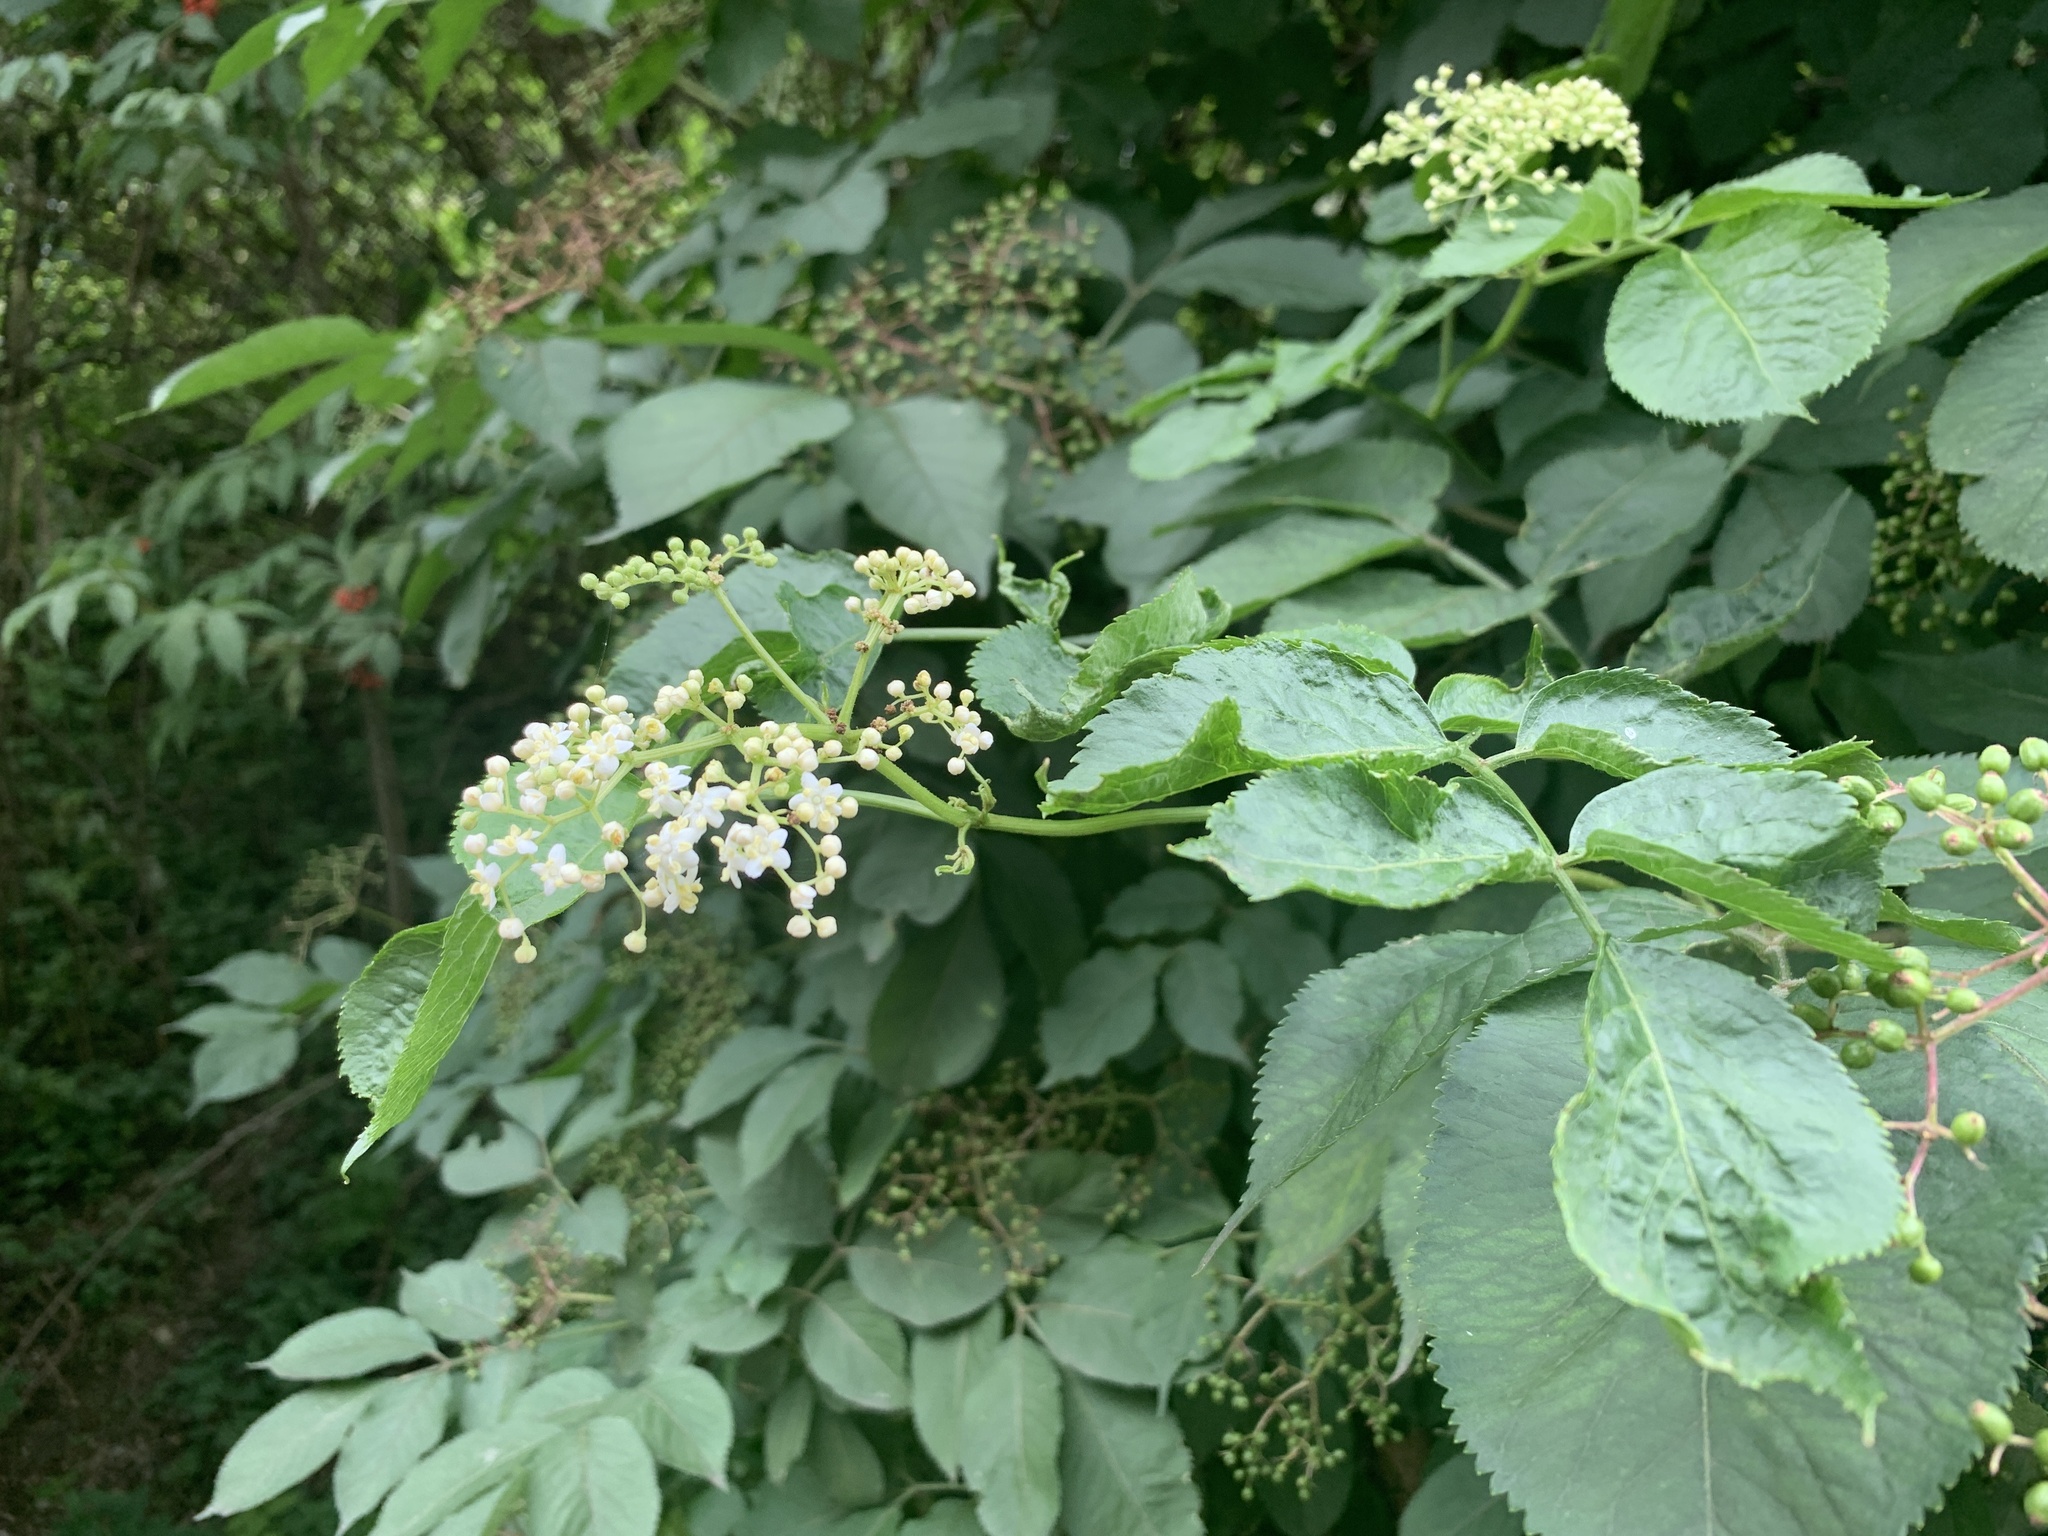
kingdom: Plantae
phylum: Tracheophyta
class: Magnoliopsida
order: Dipsacales
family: Viburnaceae
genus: Sambucus
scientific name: Sambucus nigra
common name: Elder
